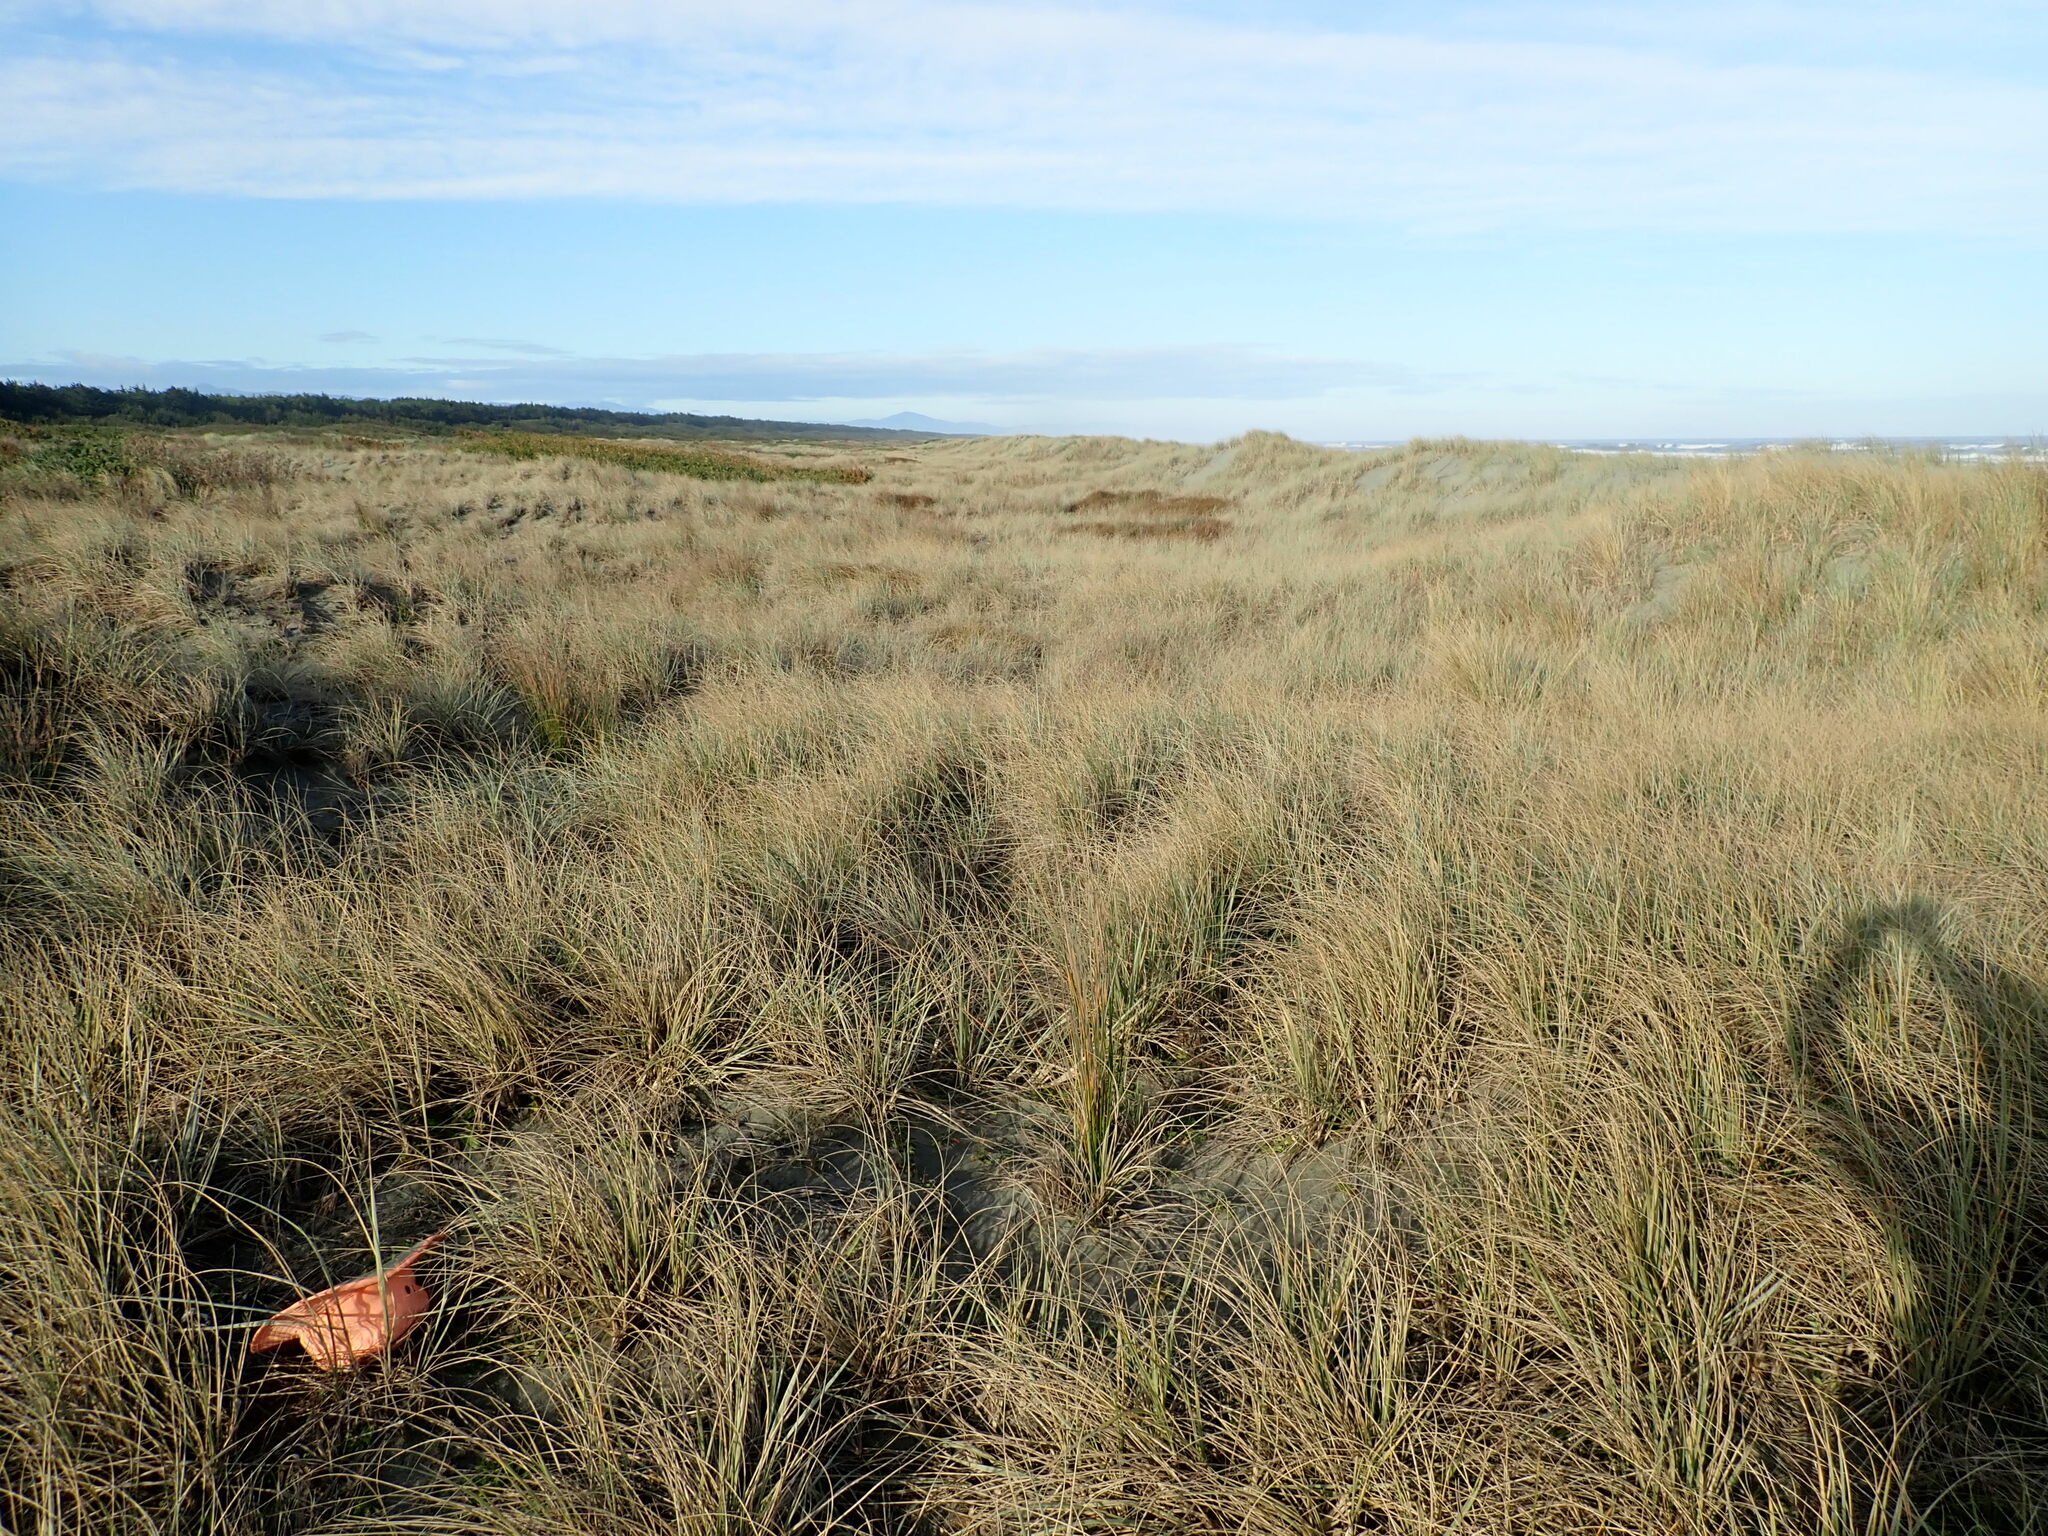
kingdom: Fungi
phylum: Basidiomycota
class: Agaricomycetes
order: Phallales
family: Phallaceae
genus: Ileodictyon
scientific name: Ileodictyon cibarium
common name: Basket fungus
